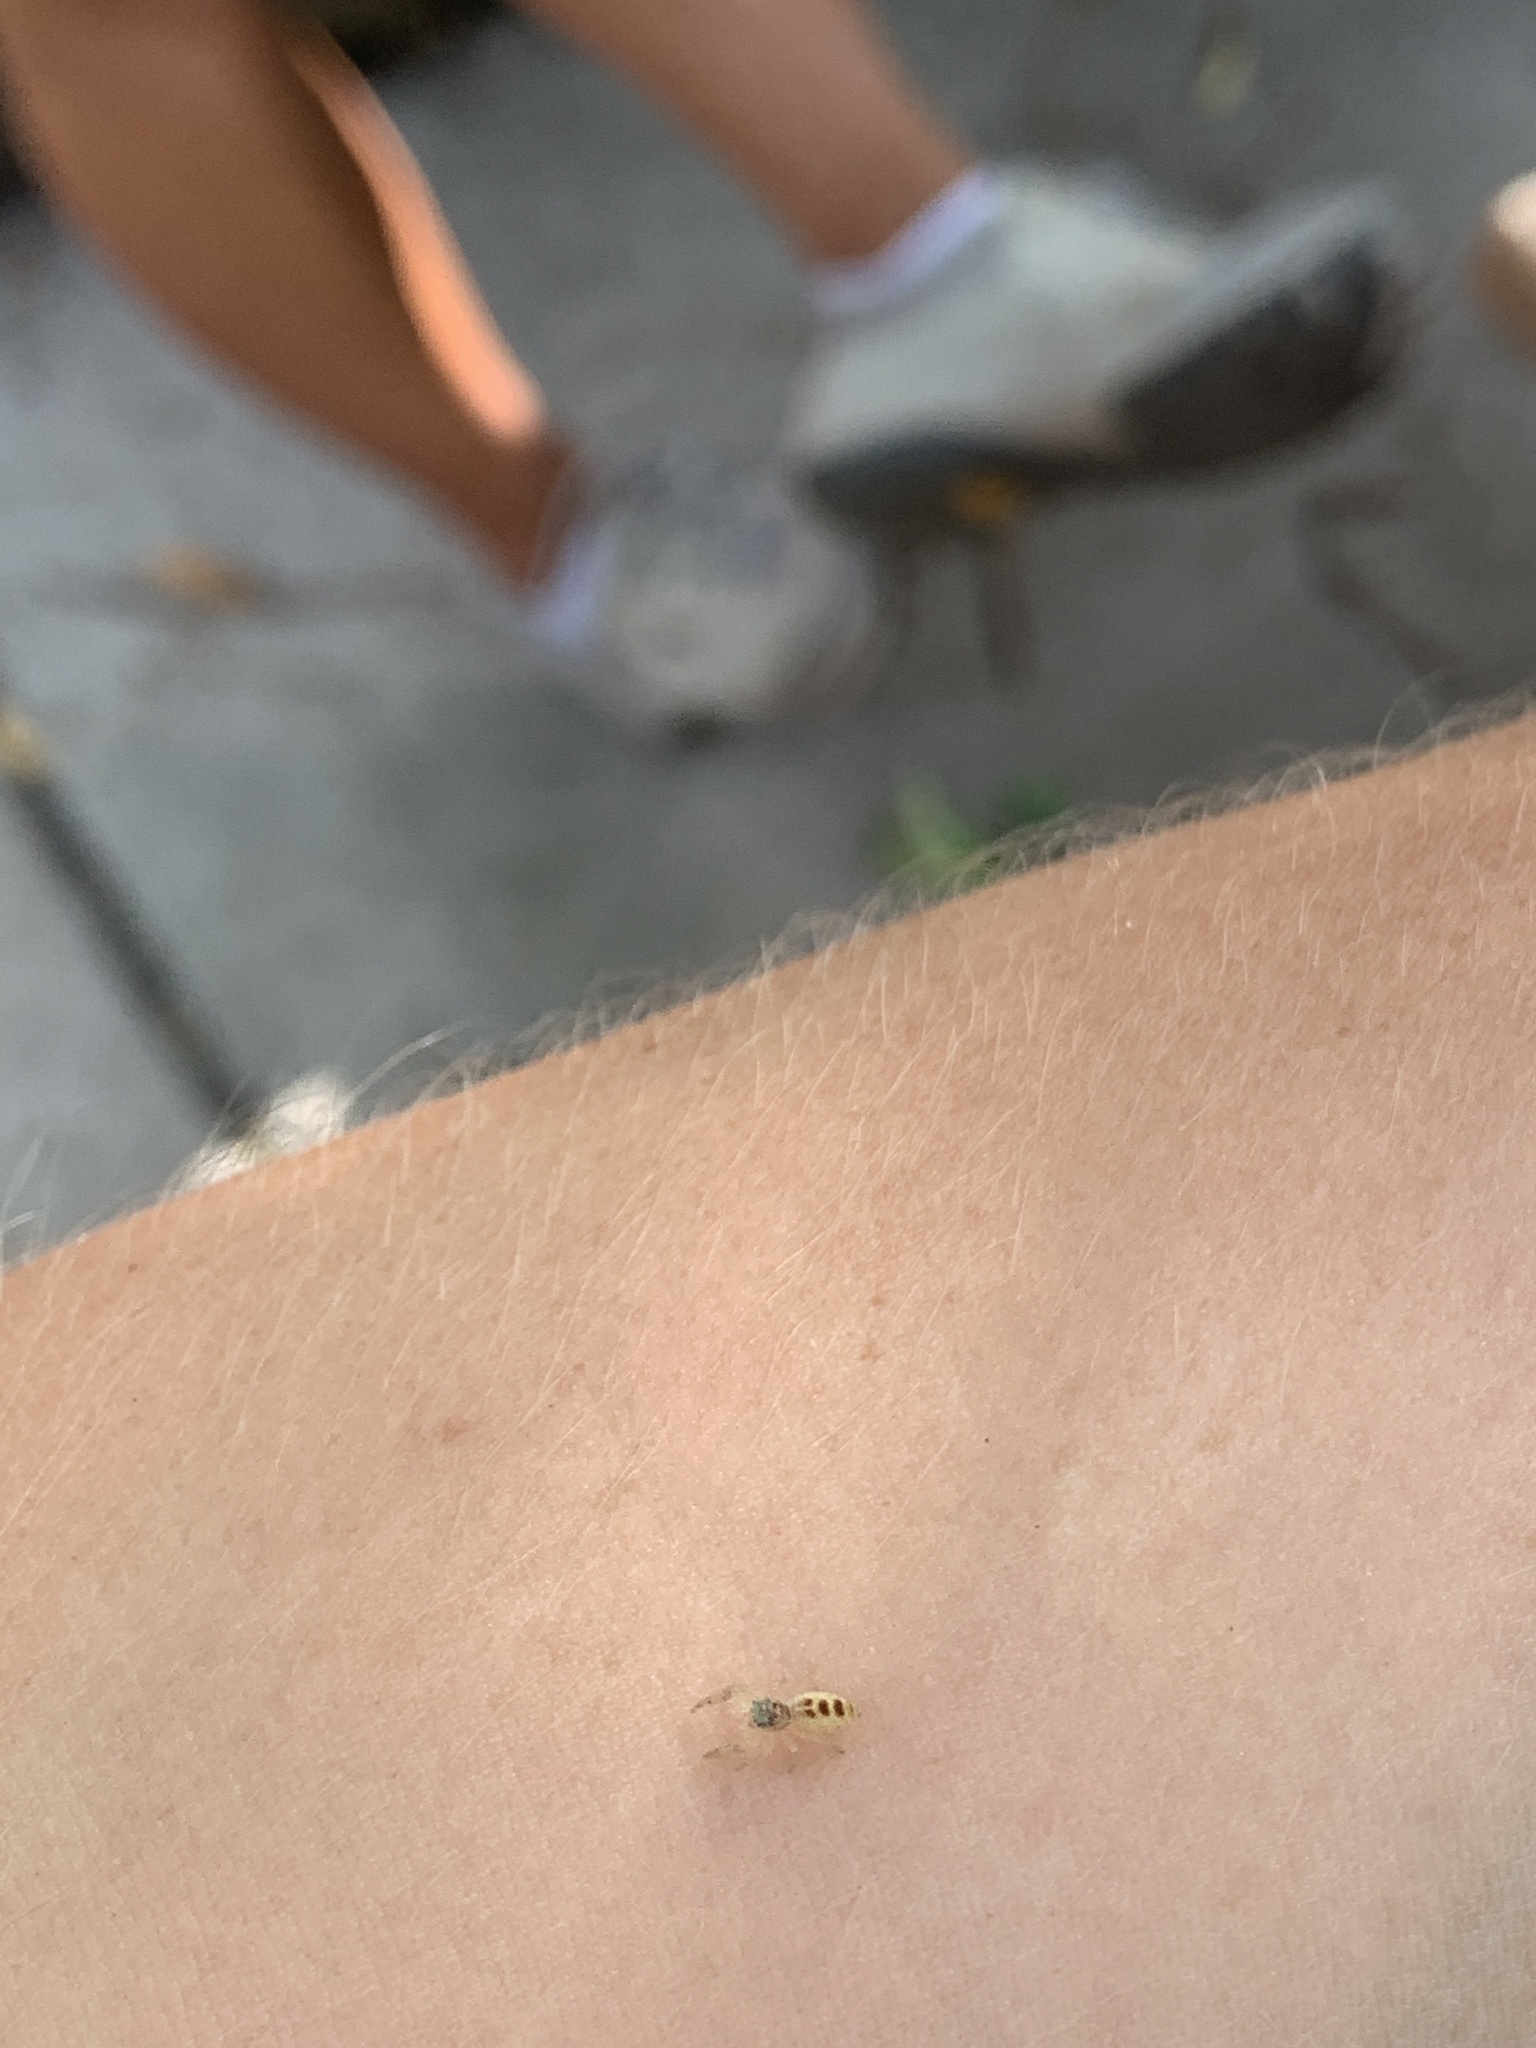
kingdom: Animalia
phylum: Arthropoda
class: Arachnida
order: Araneae
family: Salticidae
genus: Hentzia
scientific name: Hentzia mitrata
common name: White-jawed jumping spider
